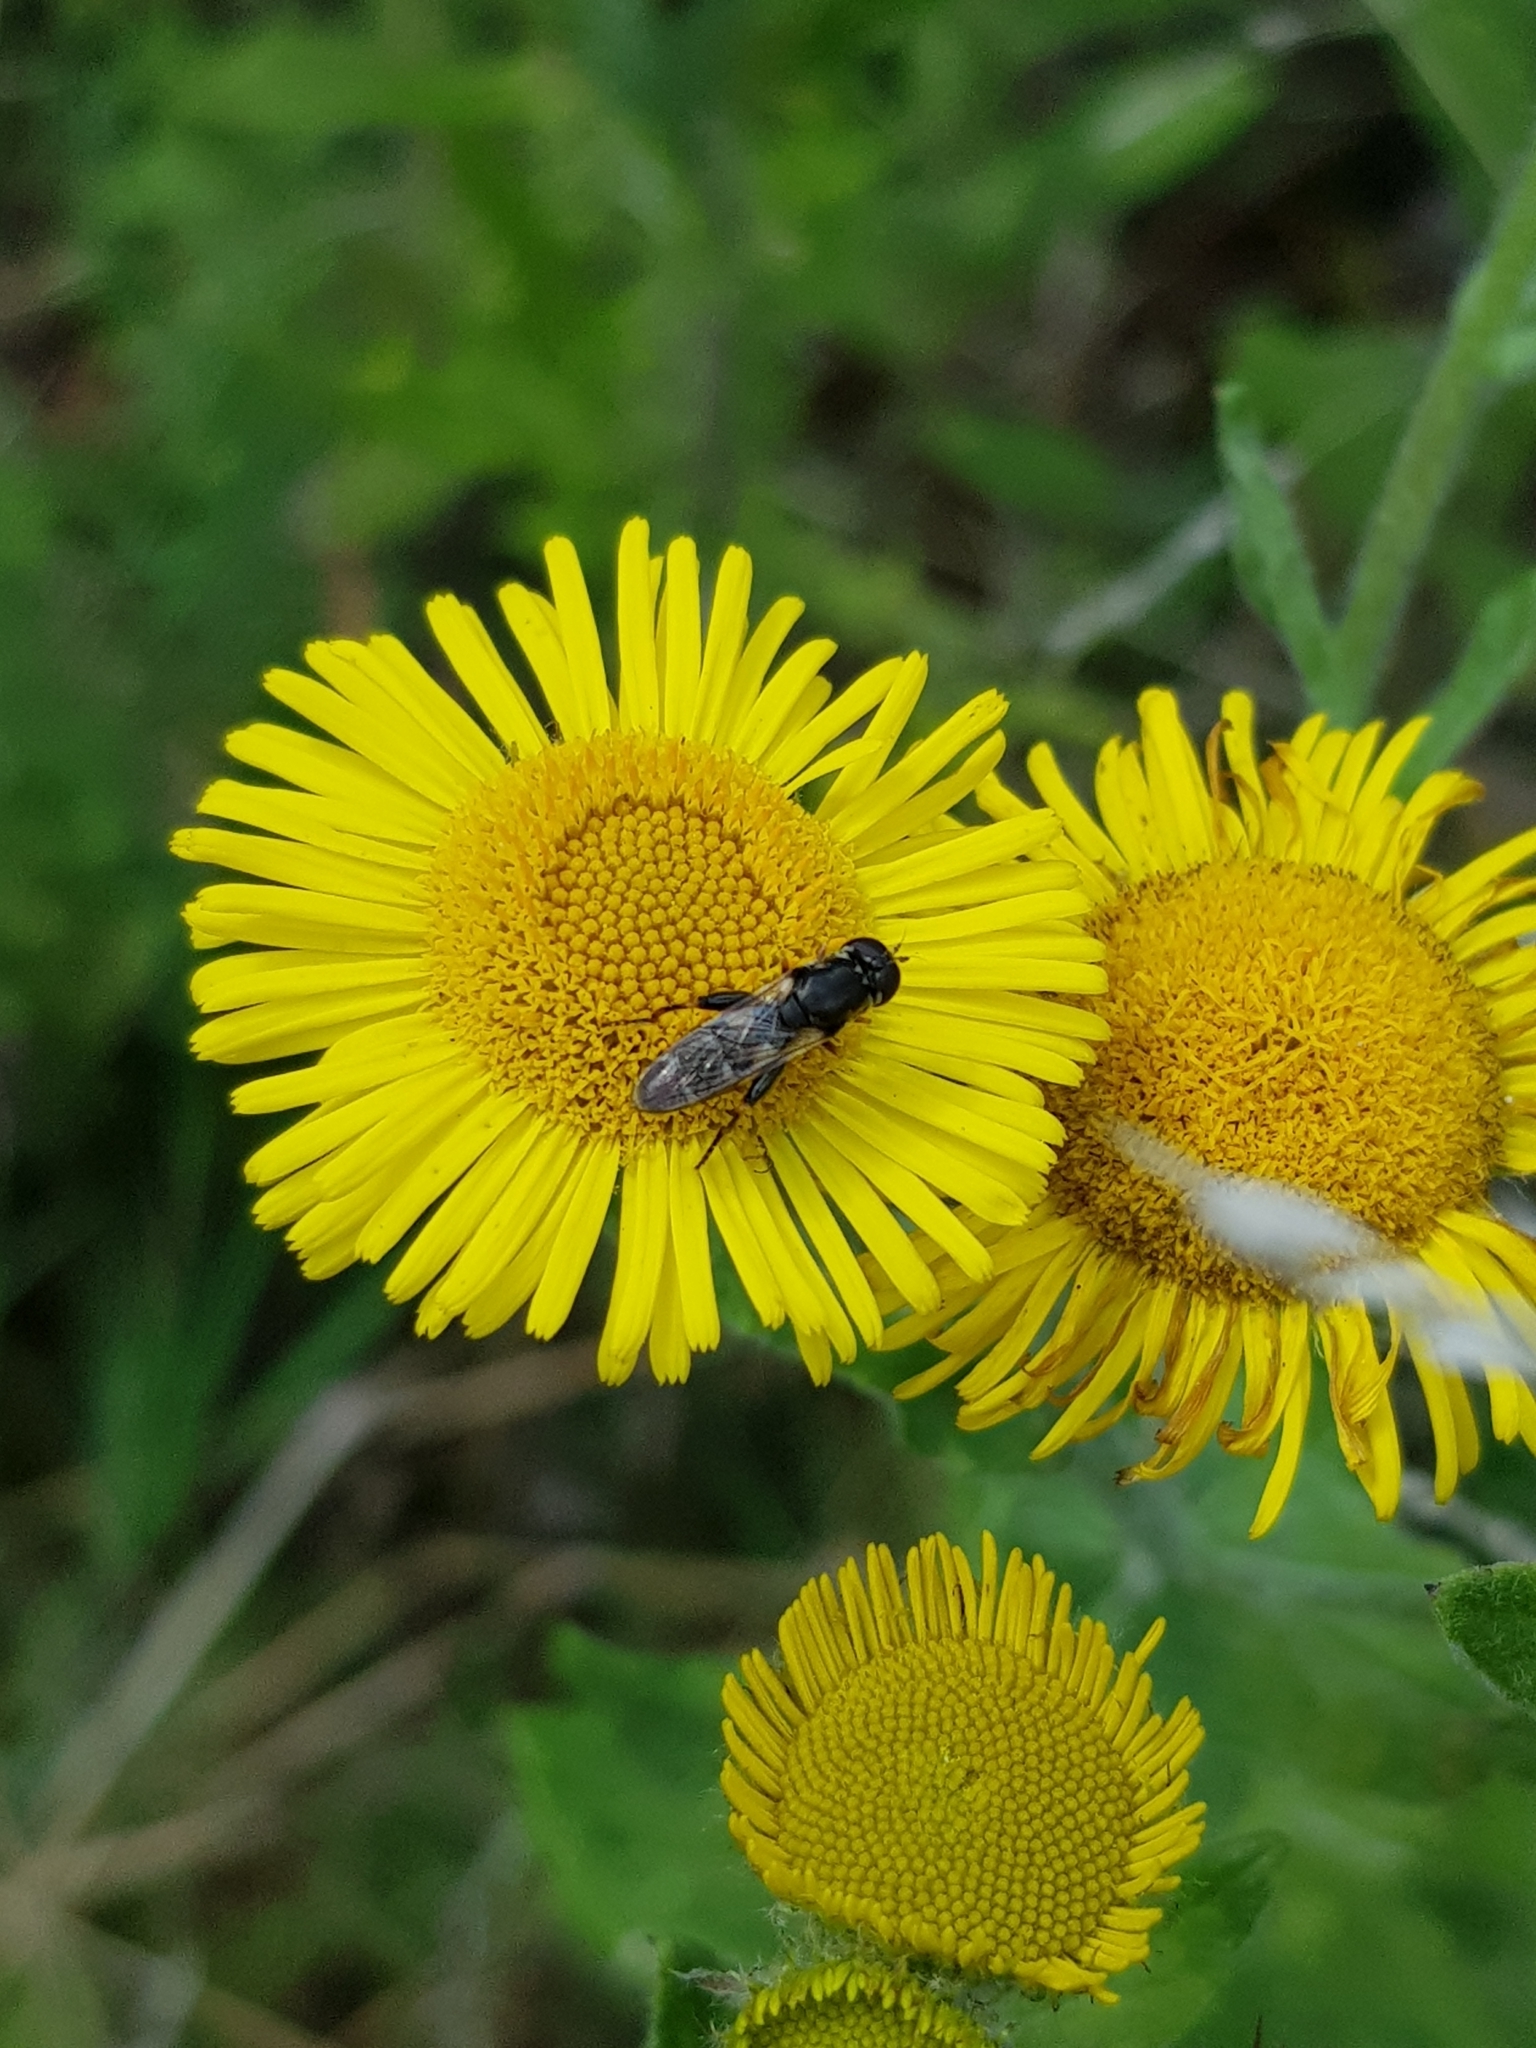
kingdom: Animalia
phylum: Arthropoda
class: Insecta
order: Diptera
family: Syrphidae
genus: Syritta
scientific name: Syritta pipiens
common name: Hover fly
